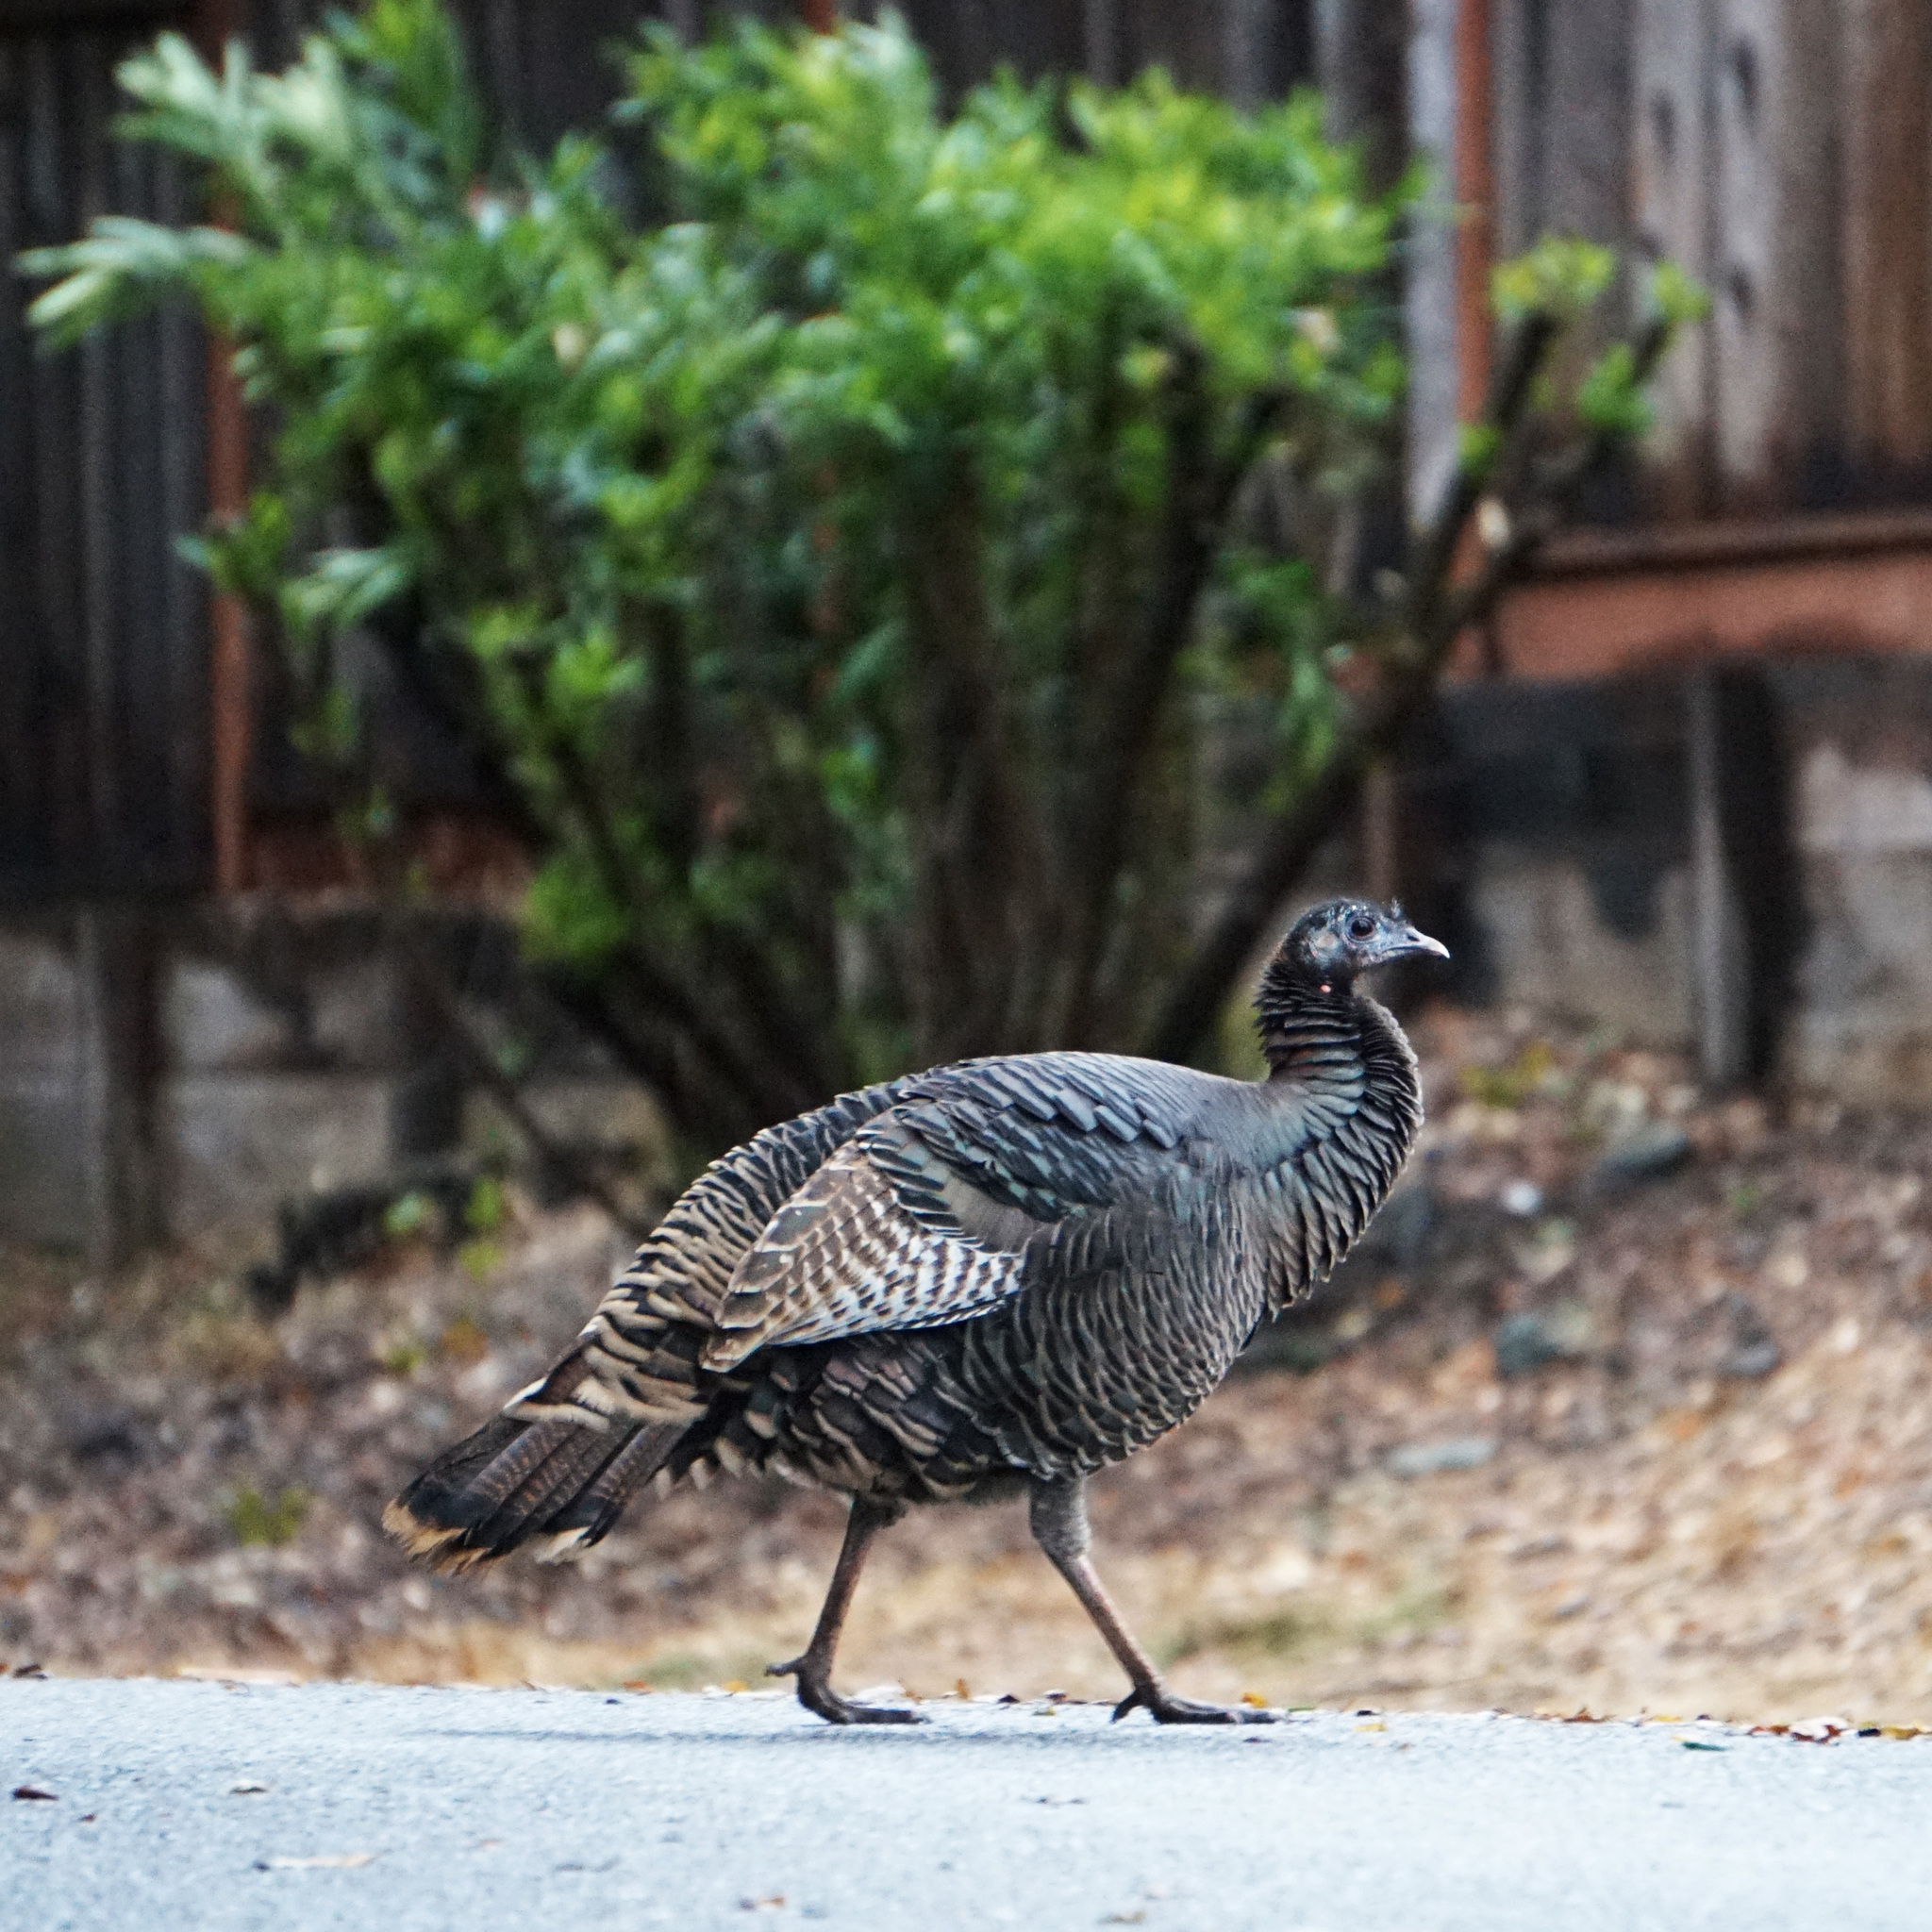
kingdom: Animalia
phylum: Chordata
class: Aves
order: Galliformes
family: Phasianidae
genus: Meleagris
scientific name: Meleagris gallopavo
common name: Wild turkey
